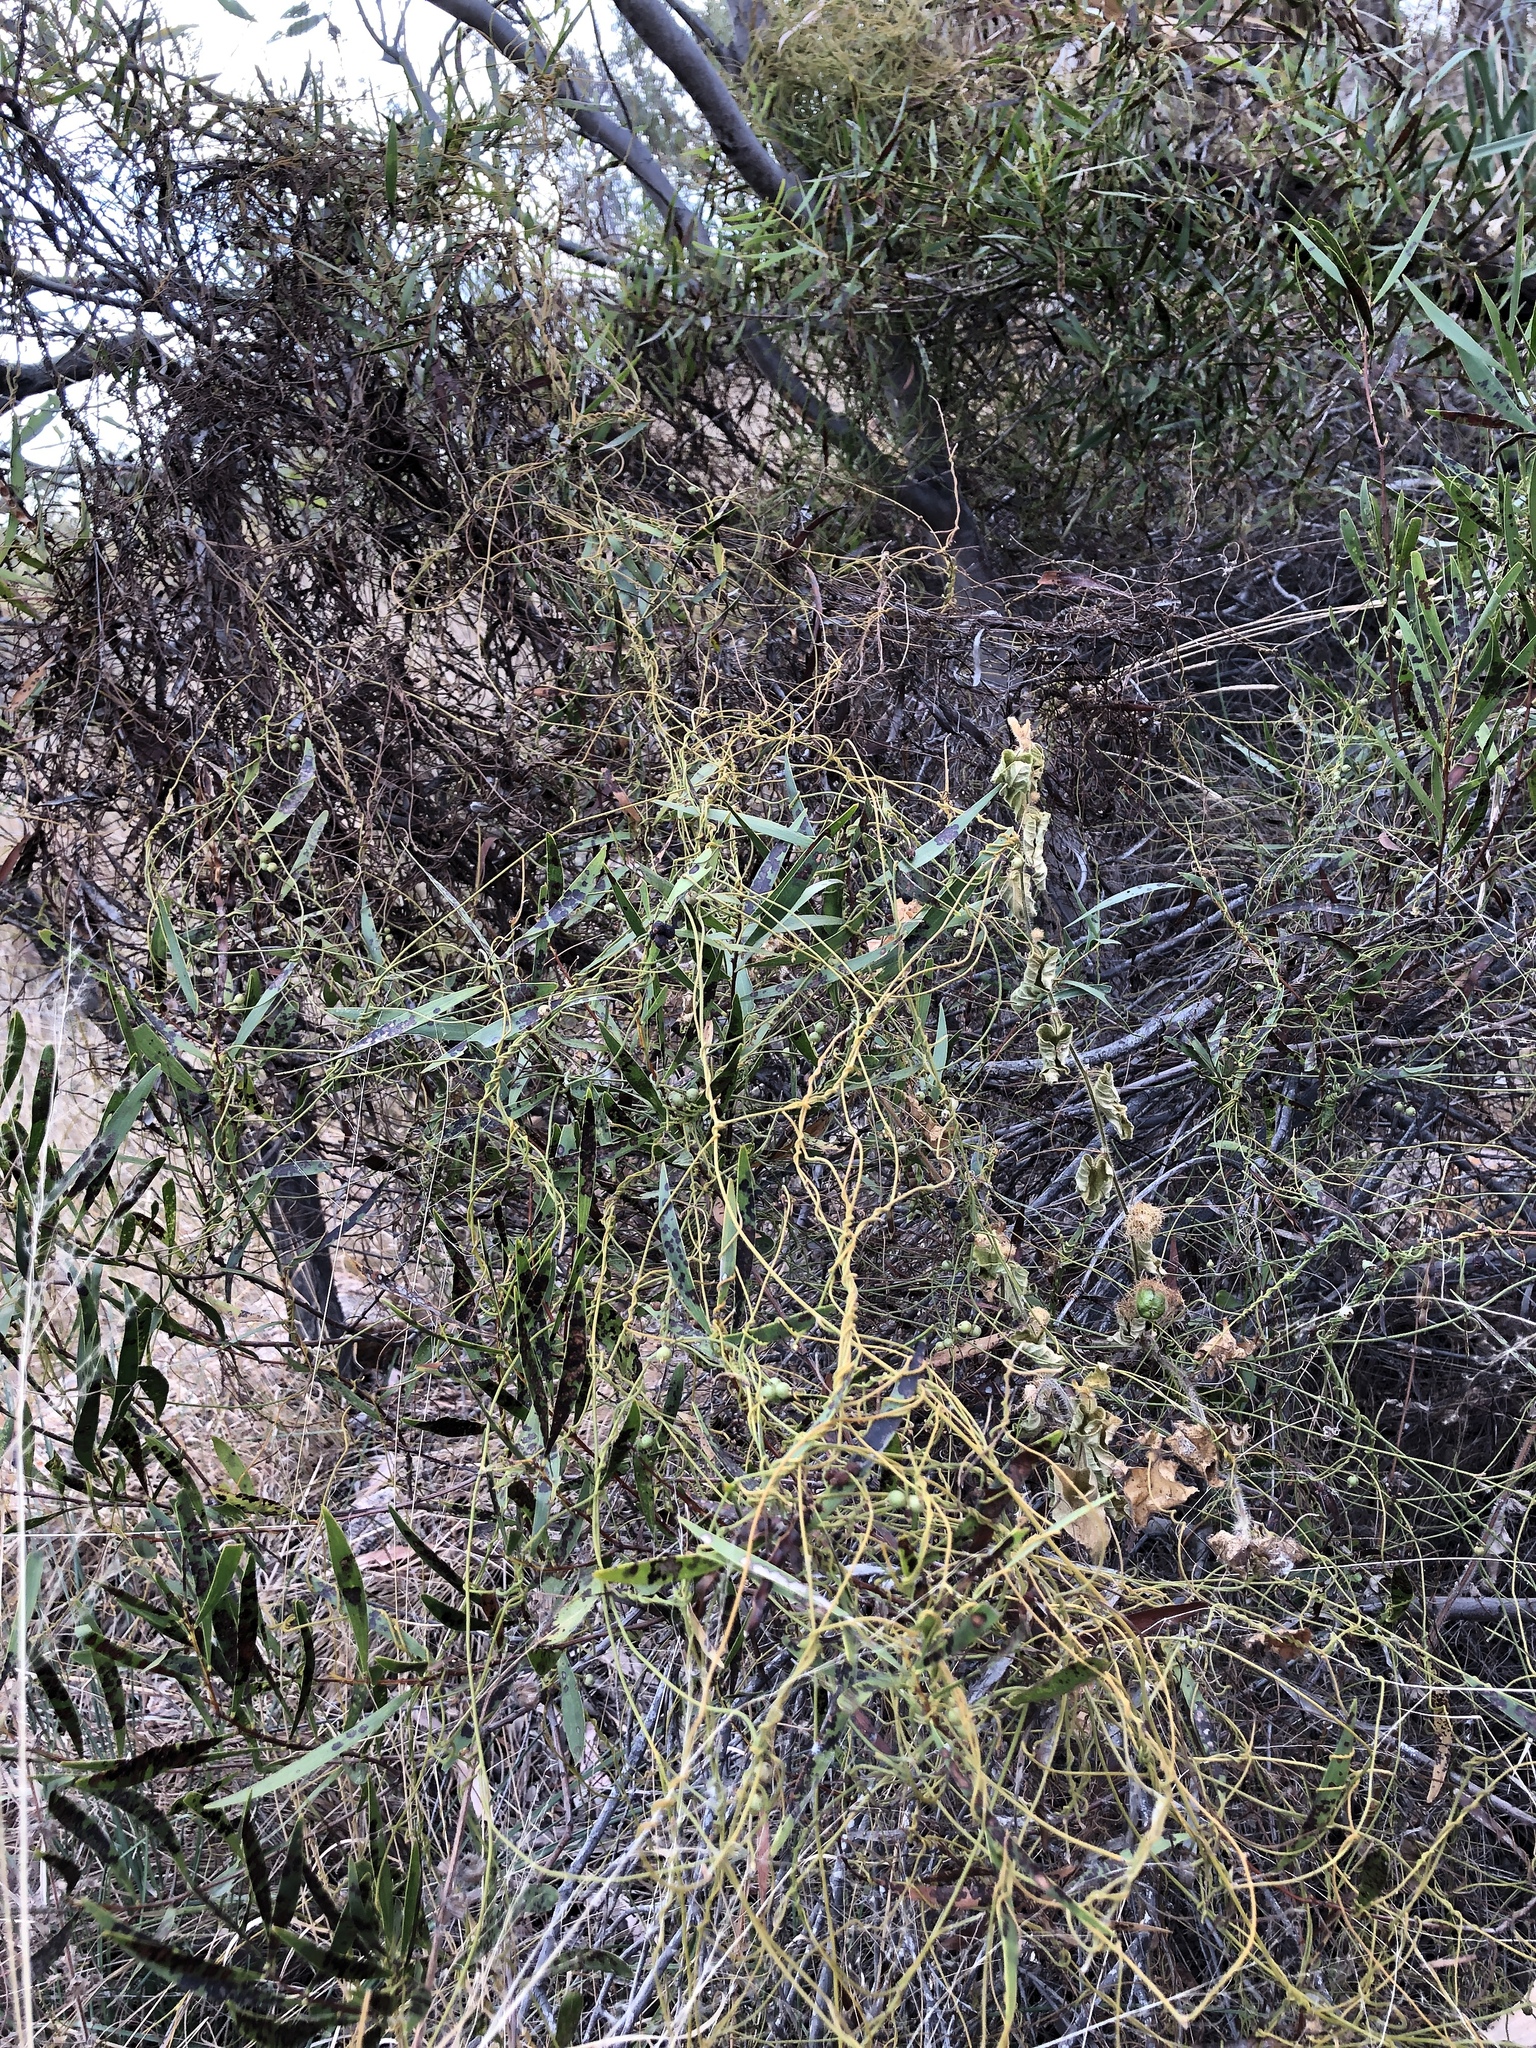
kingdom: Plantae
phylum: Tracheophyta
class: Magnoliopsida
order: Laurales
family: Lauraceae
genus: Cassytha
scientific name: Cassytha filiformis
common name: Dodder-laurel
